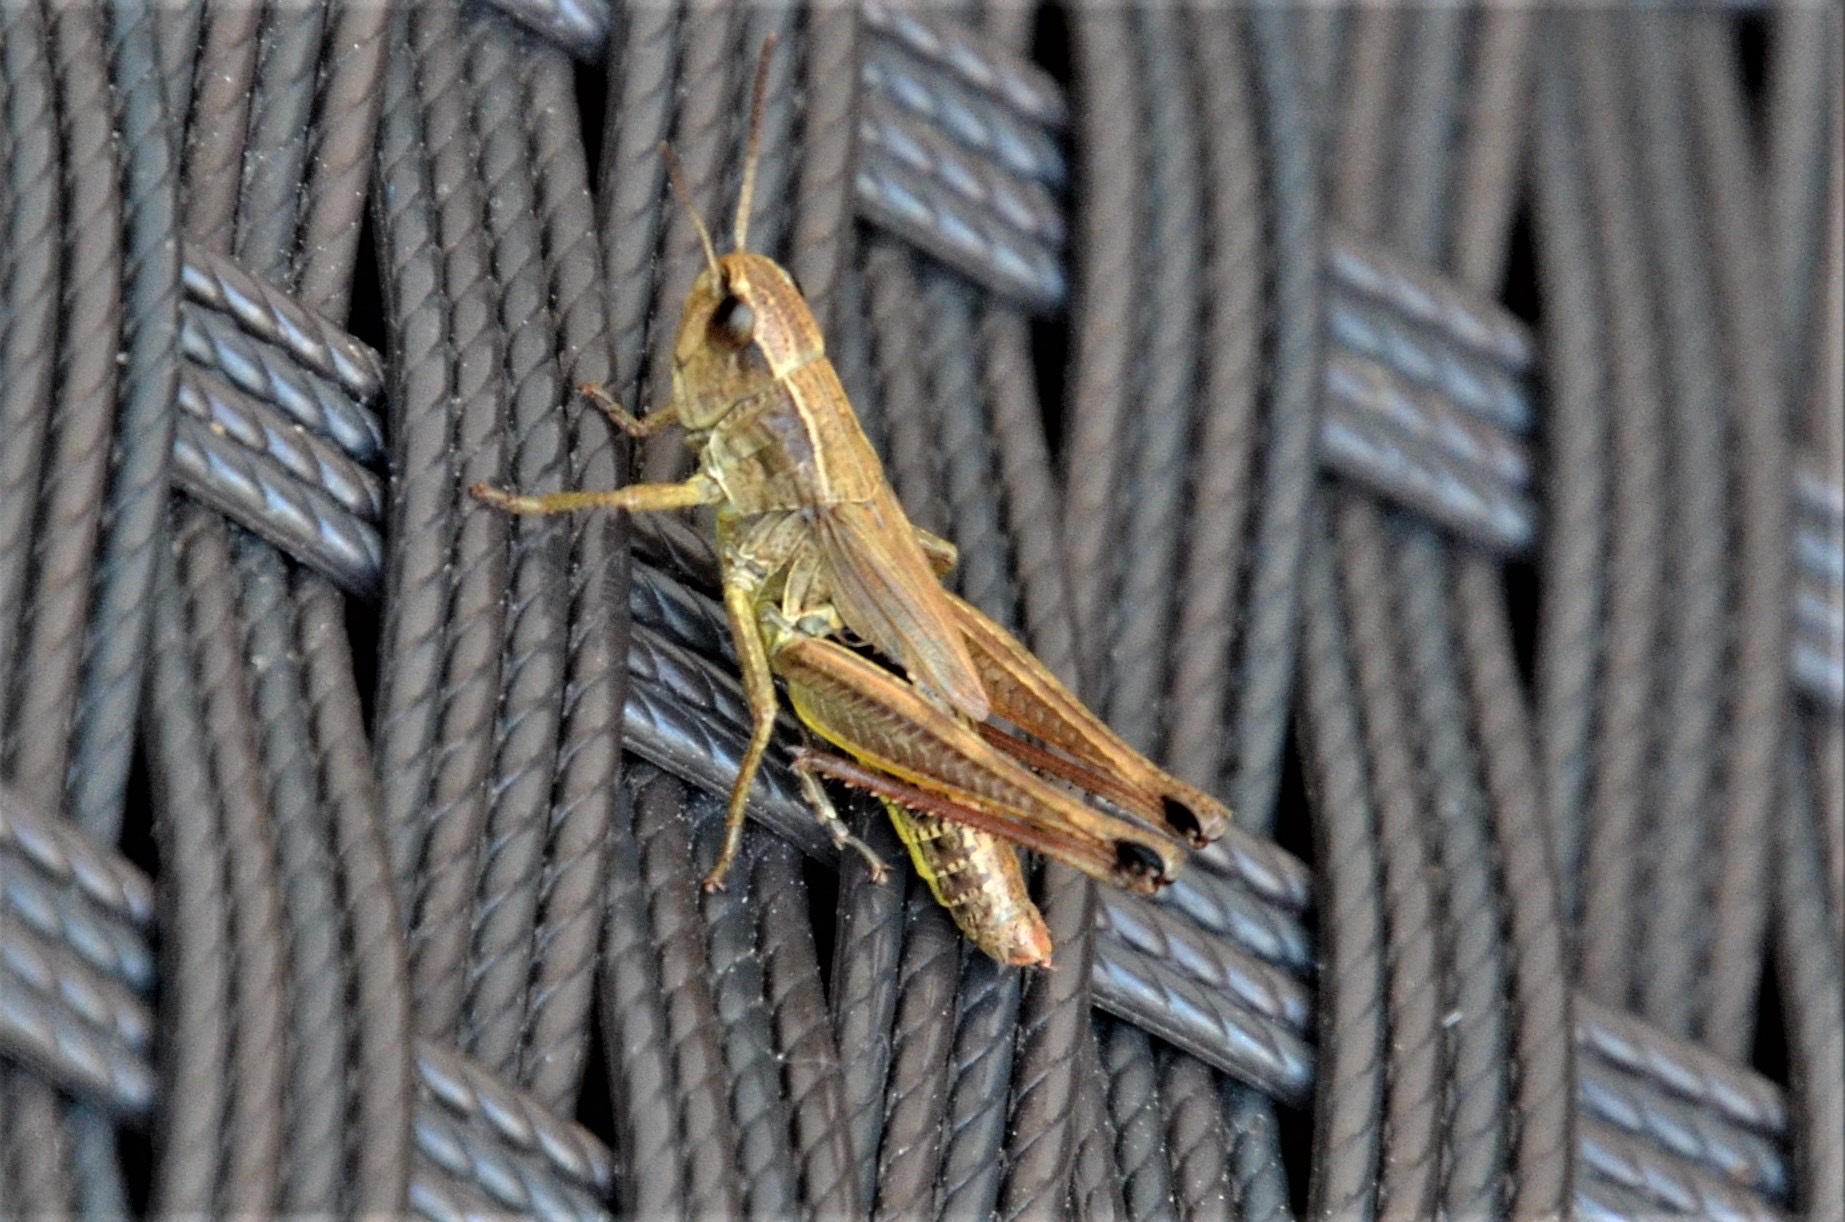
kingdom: Animalia
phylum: Arthropoda
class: Insecta
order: Orthoptera
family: Acrididae
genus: Pseudochorthippus
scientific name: Pseudochorthippus parallelus
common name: Meadow grasshopper
